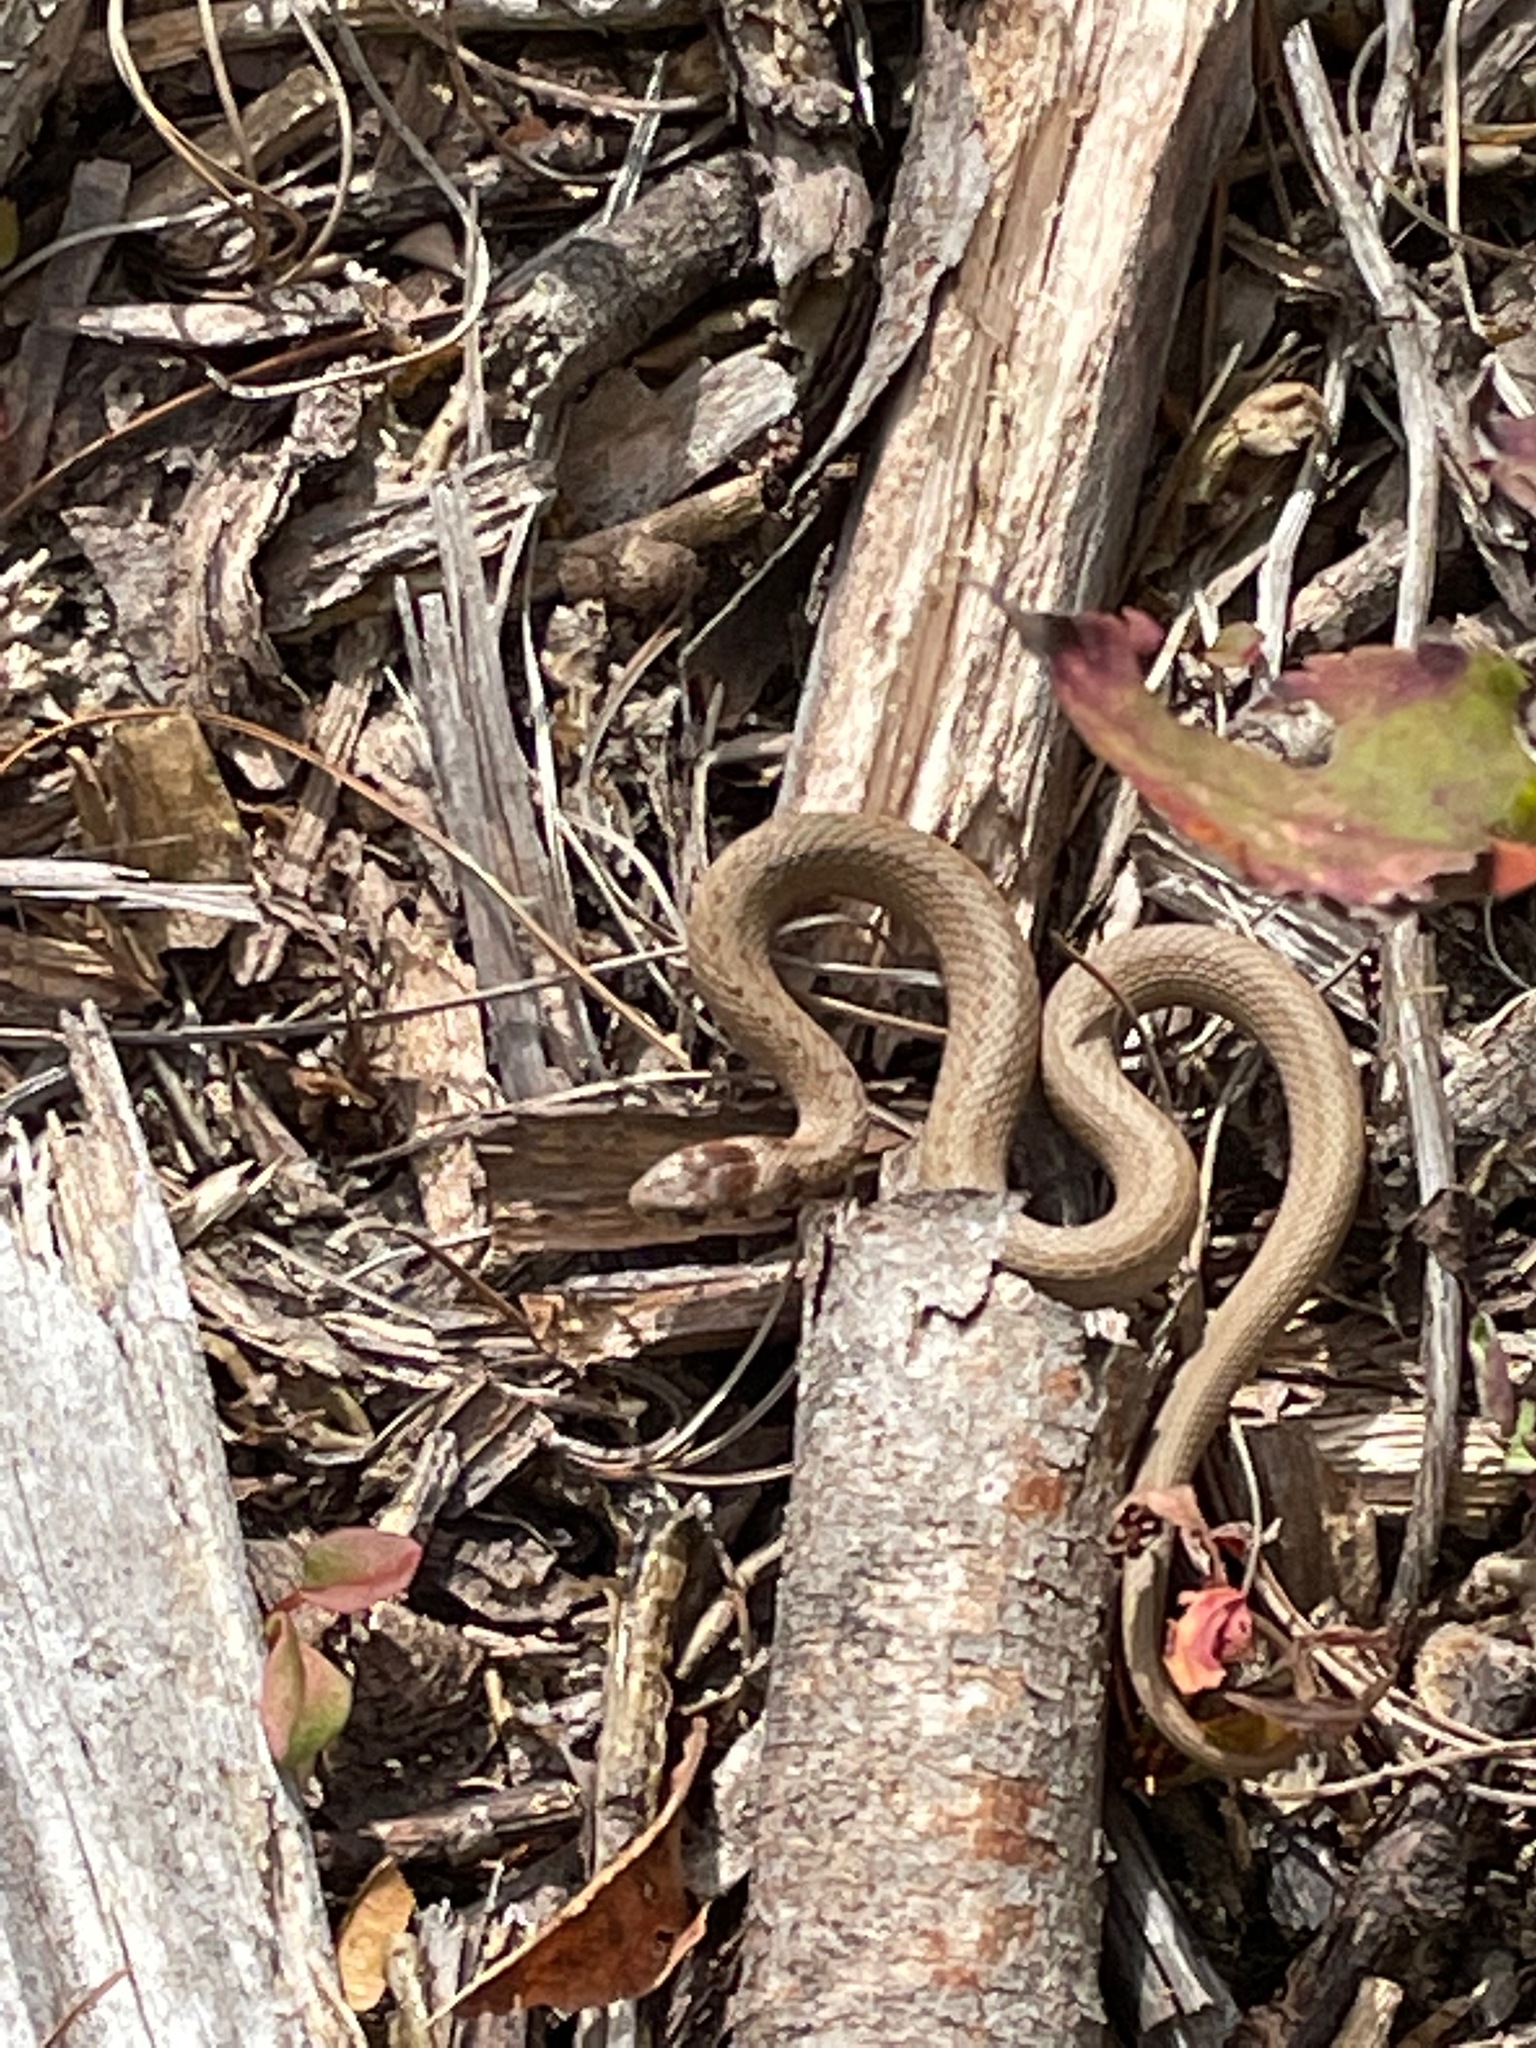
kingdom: Animalia
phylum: Chordata
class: Squamata
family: Colubridae
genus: Storeria
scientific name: Storeria dekayi
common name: (dekay’s) brown snake
